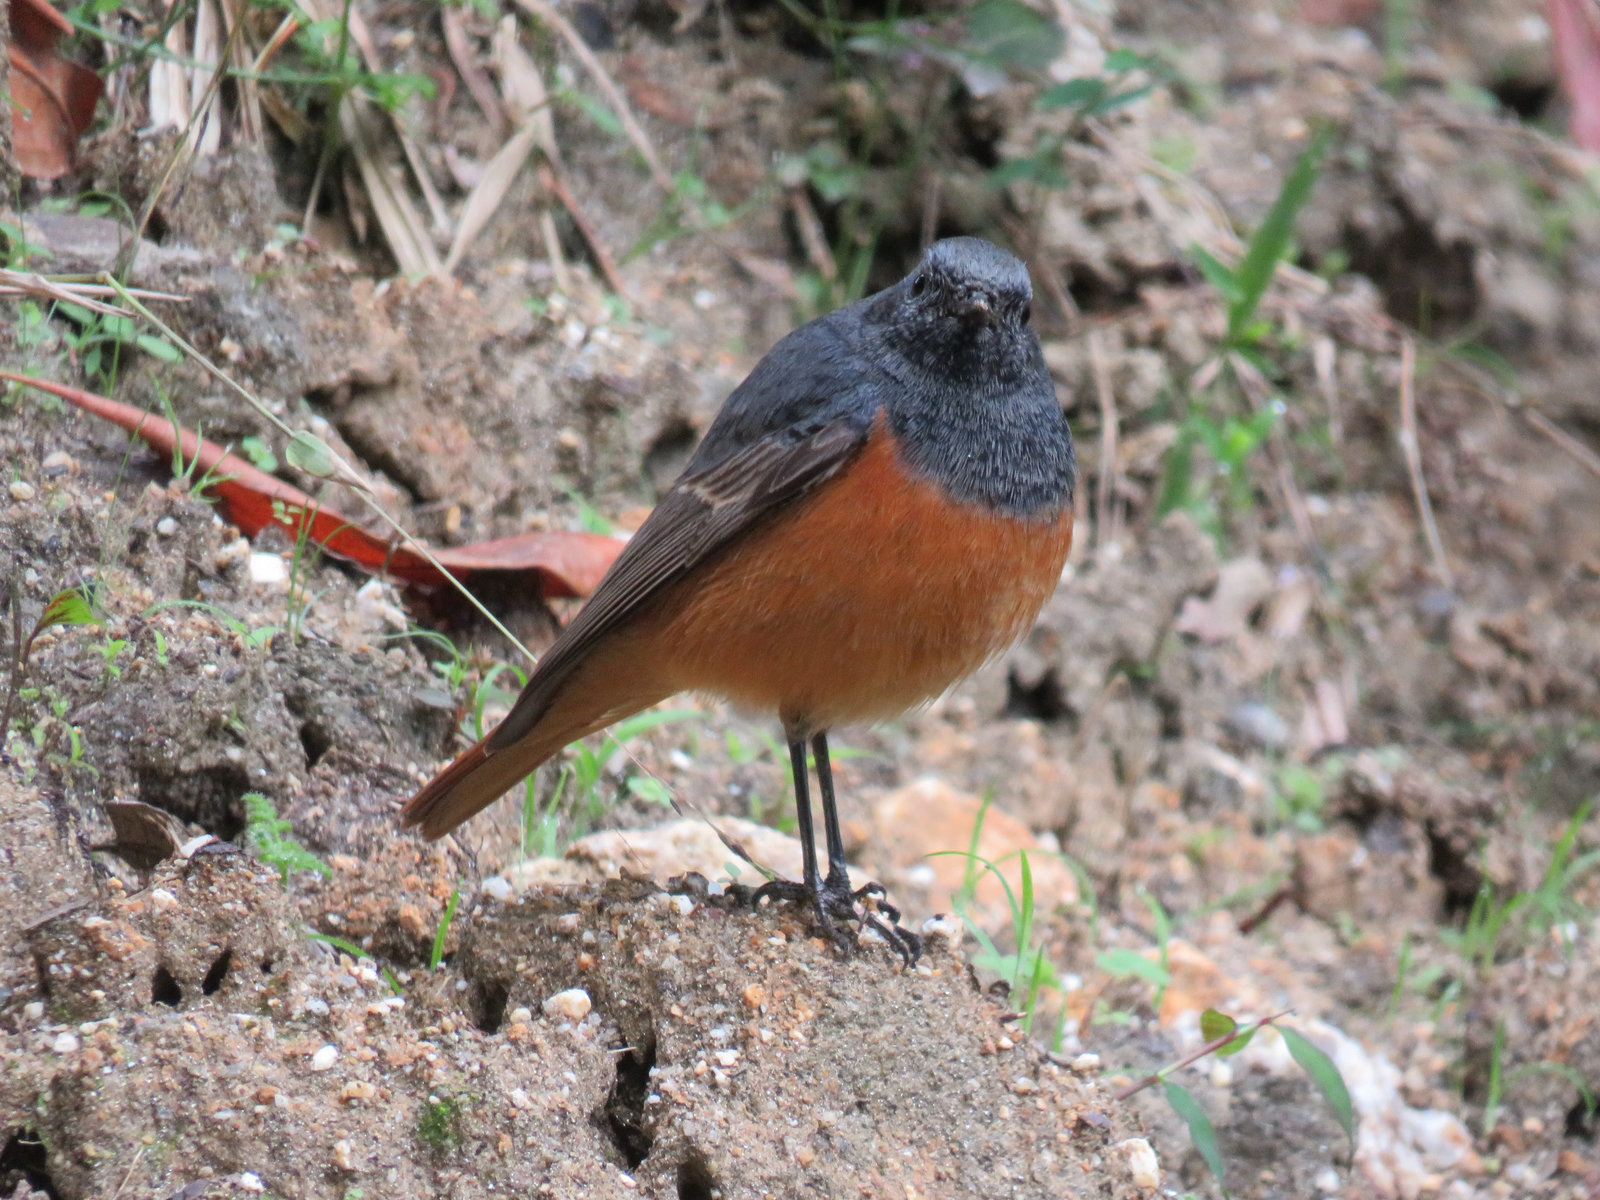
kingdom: Animalia
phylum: Chordata
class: Aves
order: Passeriformes
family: Muscicapidae
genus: Phoenicurus
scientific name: Phoenicurus ochruros
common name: Black redstart
